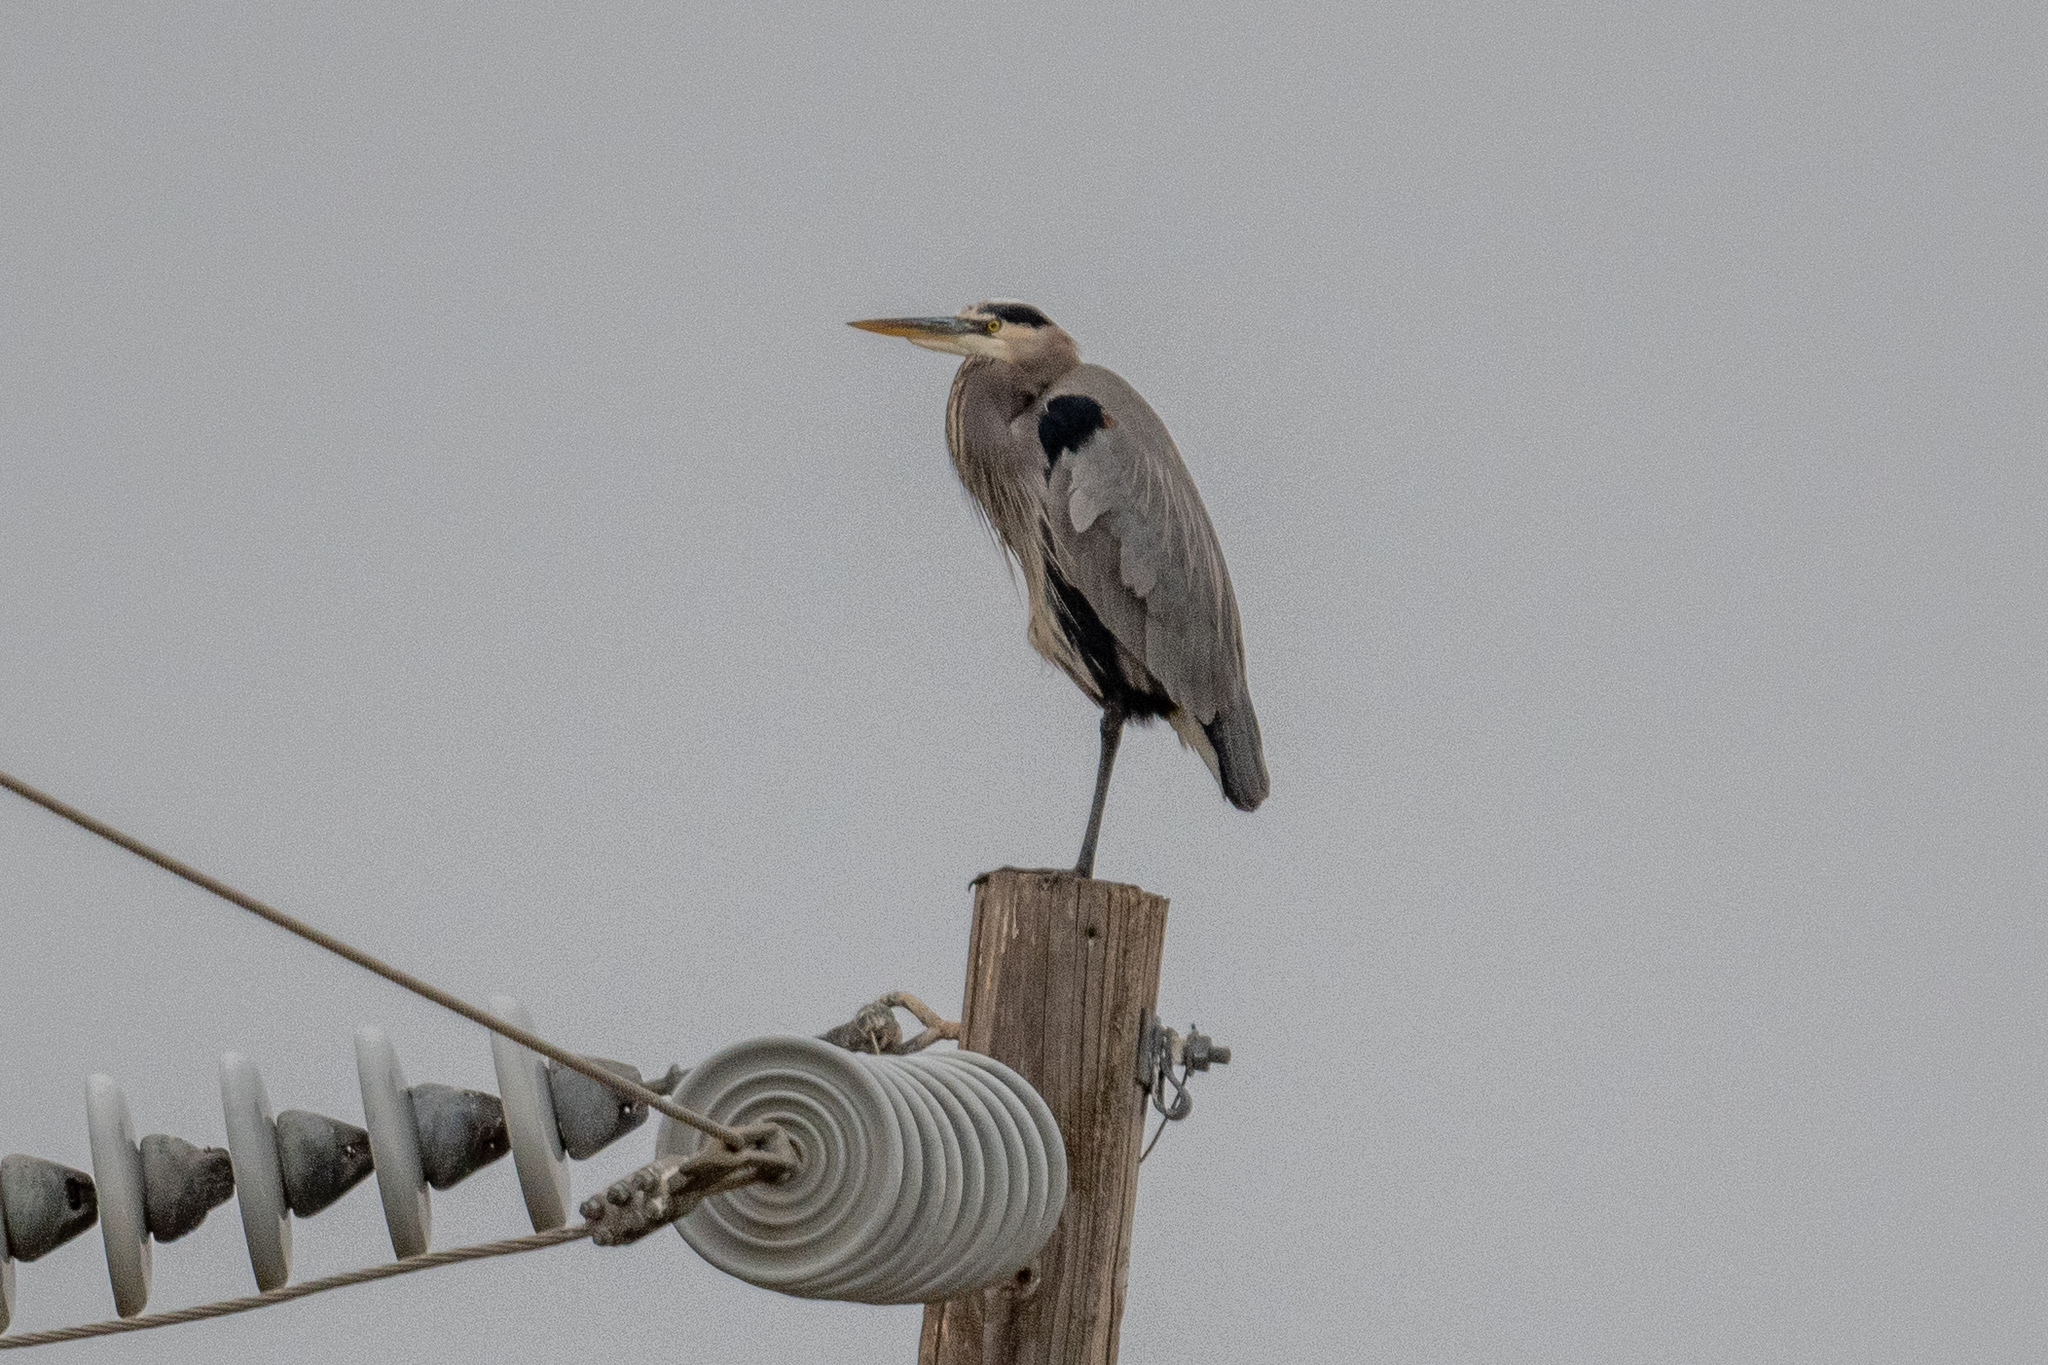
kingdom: Animalia
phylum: Chordata
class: Aves
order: Pelecaniformes
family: Ardeidae
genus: Ardea
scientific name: Ardea herodias
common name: Great blue heron
